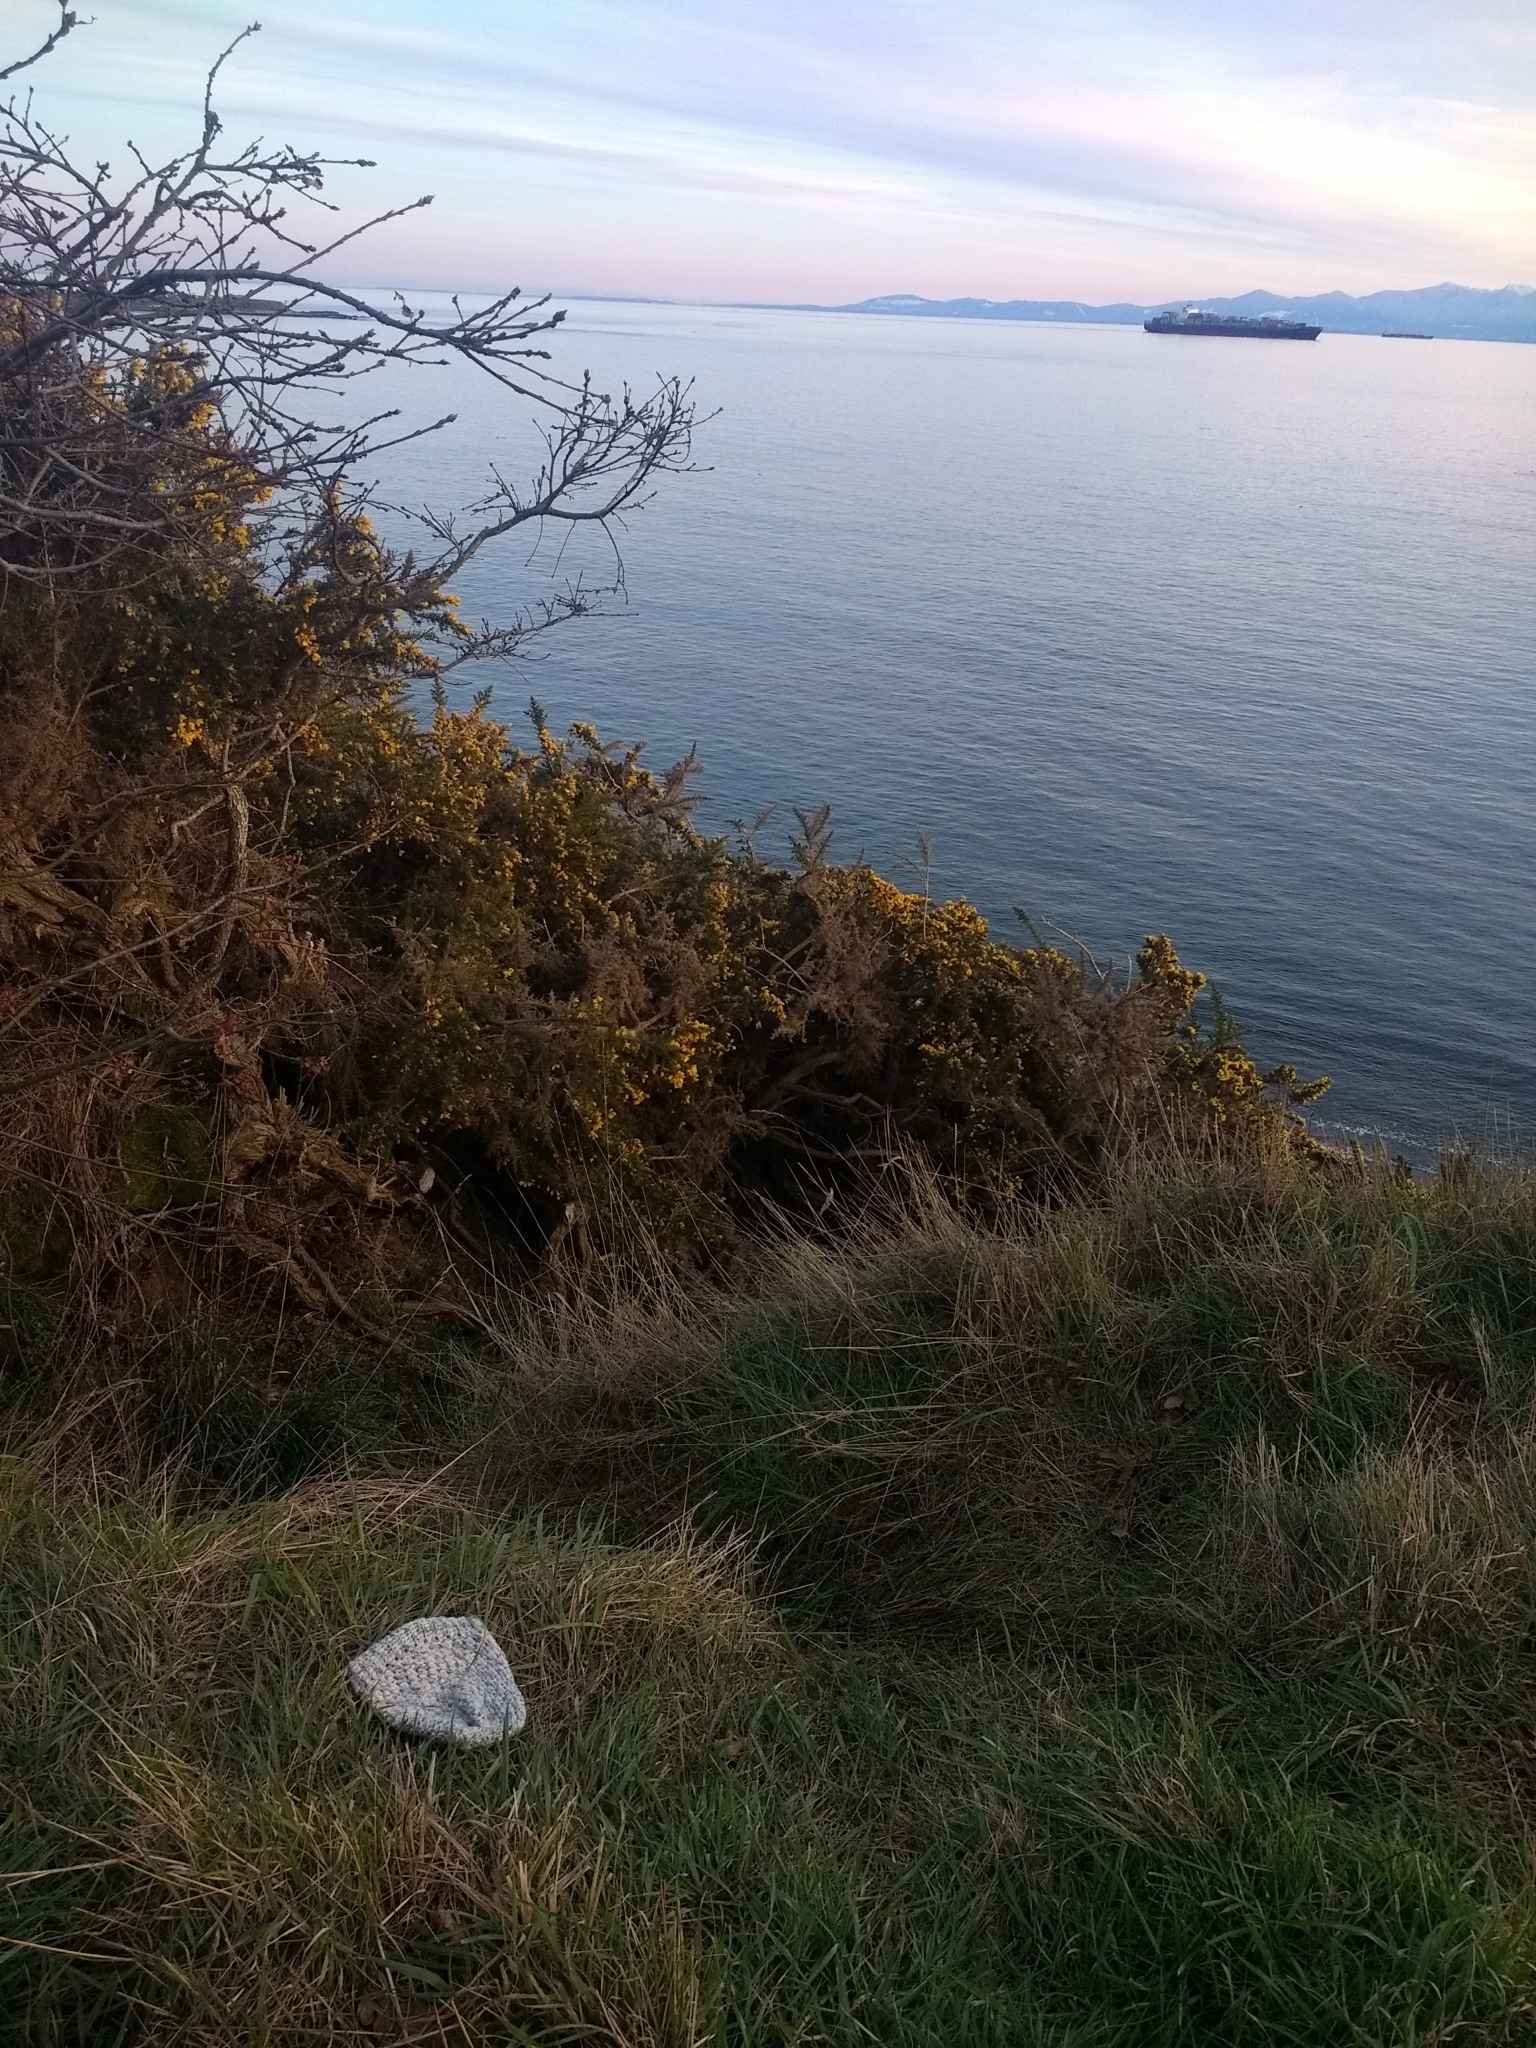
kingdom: Plantae
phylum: Tracheophyta
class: Magnoliopsida
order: Fabales
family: Fabaceae
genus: Ulex
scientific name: Ulex europaeus
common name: Common gorse
